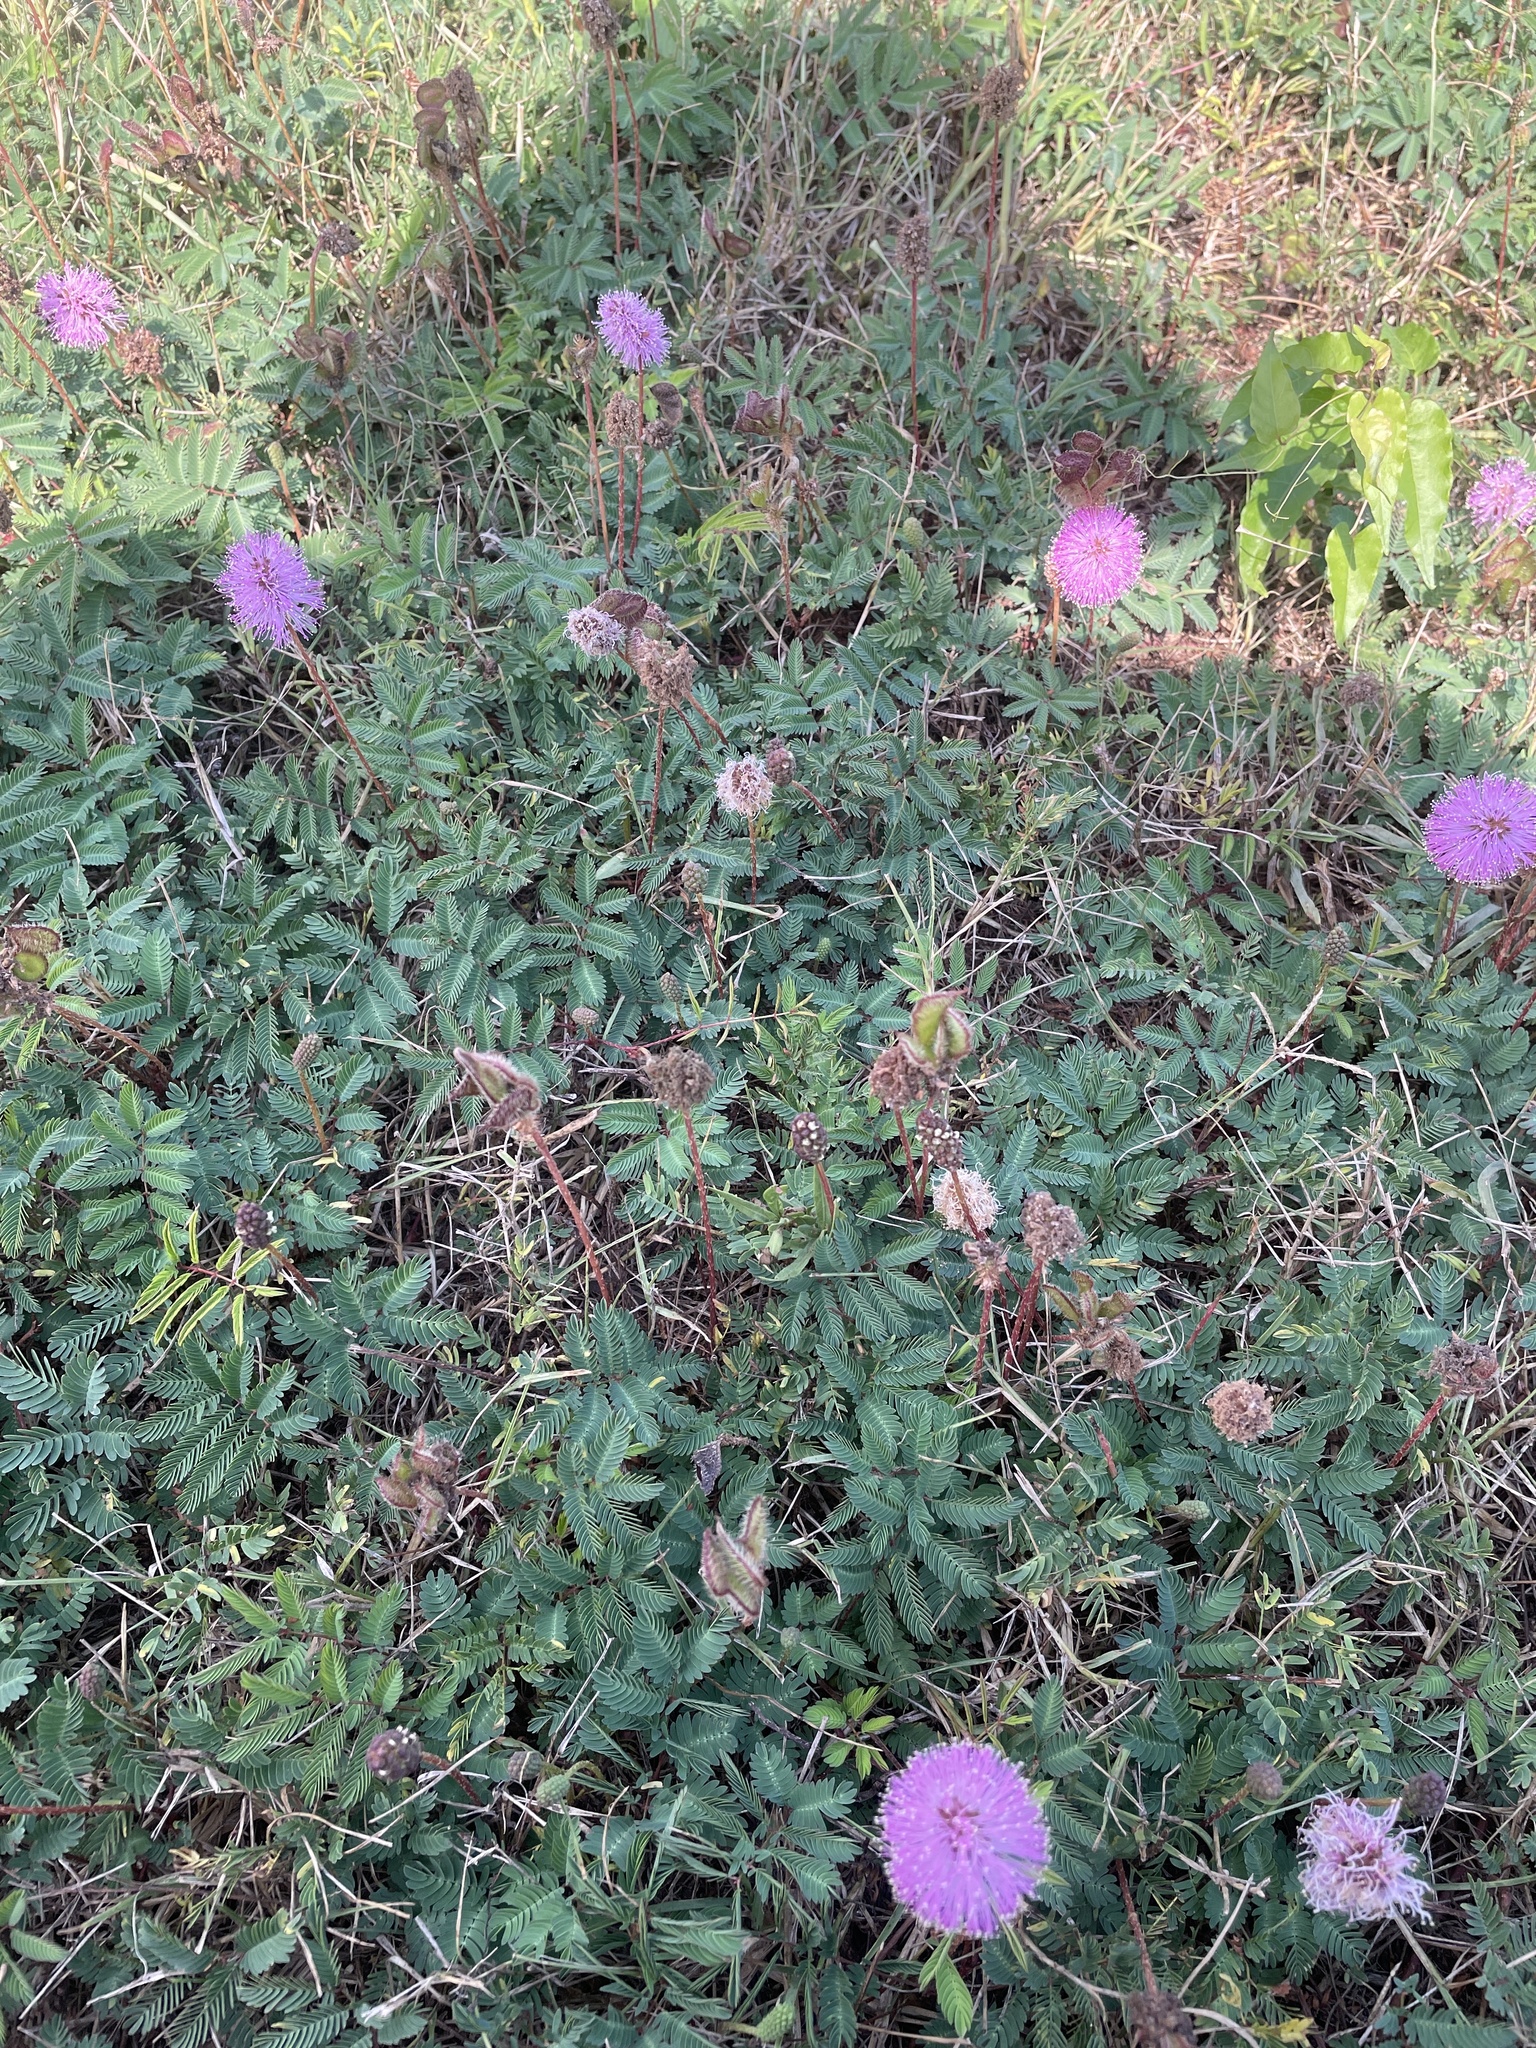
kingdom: Plantae
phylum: Tracheophyta
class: Magnoliopsida
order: Fabales
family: Fabaceae
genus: Mimosa
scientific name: Mimosa strigillosa
